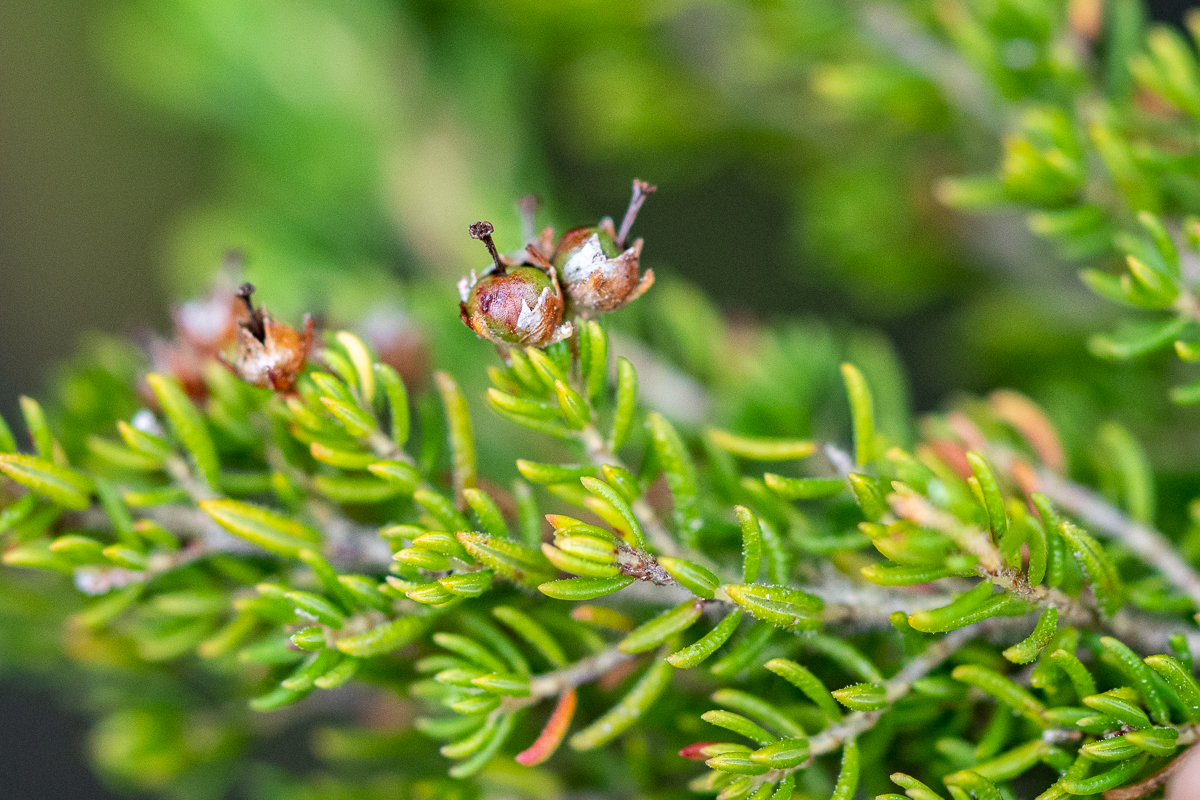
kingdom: Plantae
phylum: Tracheophyta
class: Magnoliopsida
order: Ericales
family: Ericaceae
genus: Erica
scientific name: Erica hispidula
